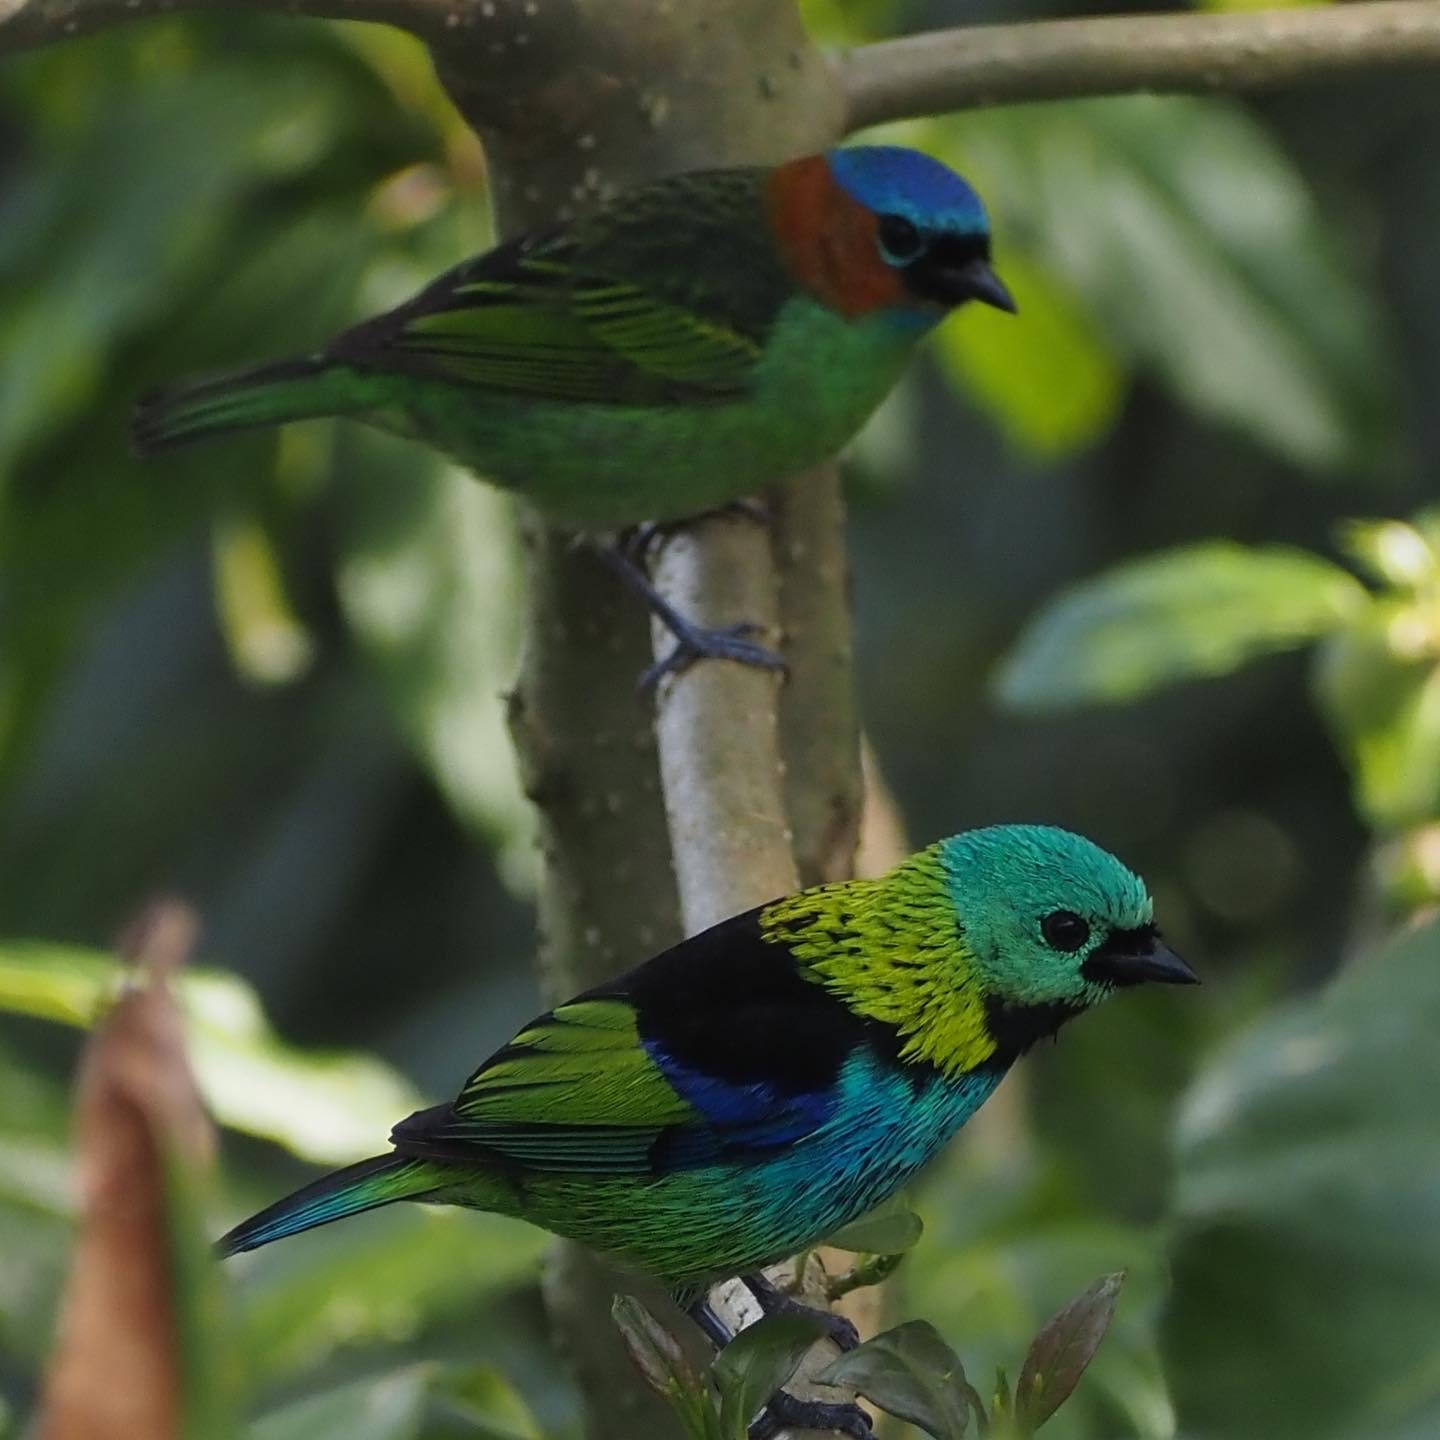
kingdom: Animalia
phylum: Chordata
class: Aves
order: Passeriformes
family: Thraupidae
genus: Tangara
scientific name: Tangara seledon
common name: Green-headed tanager
